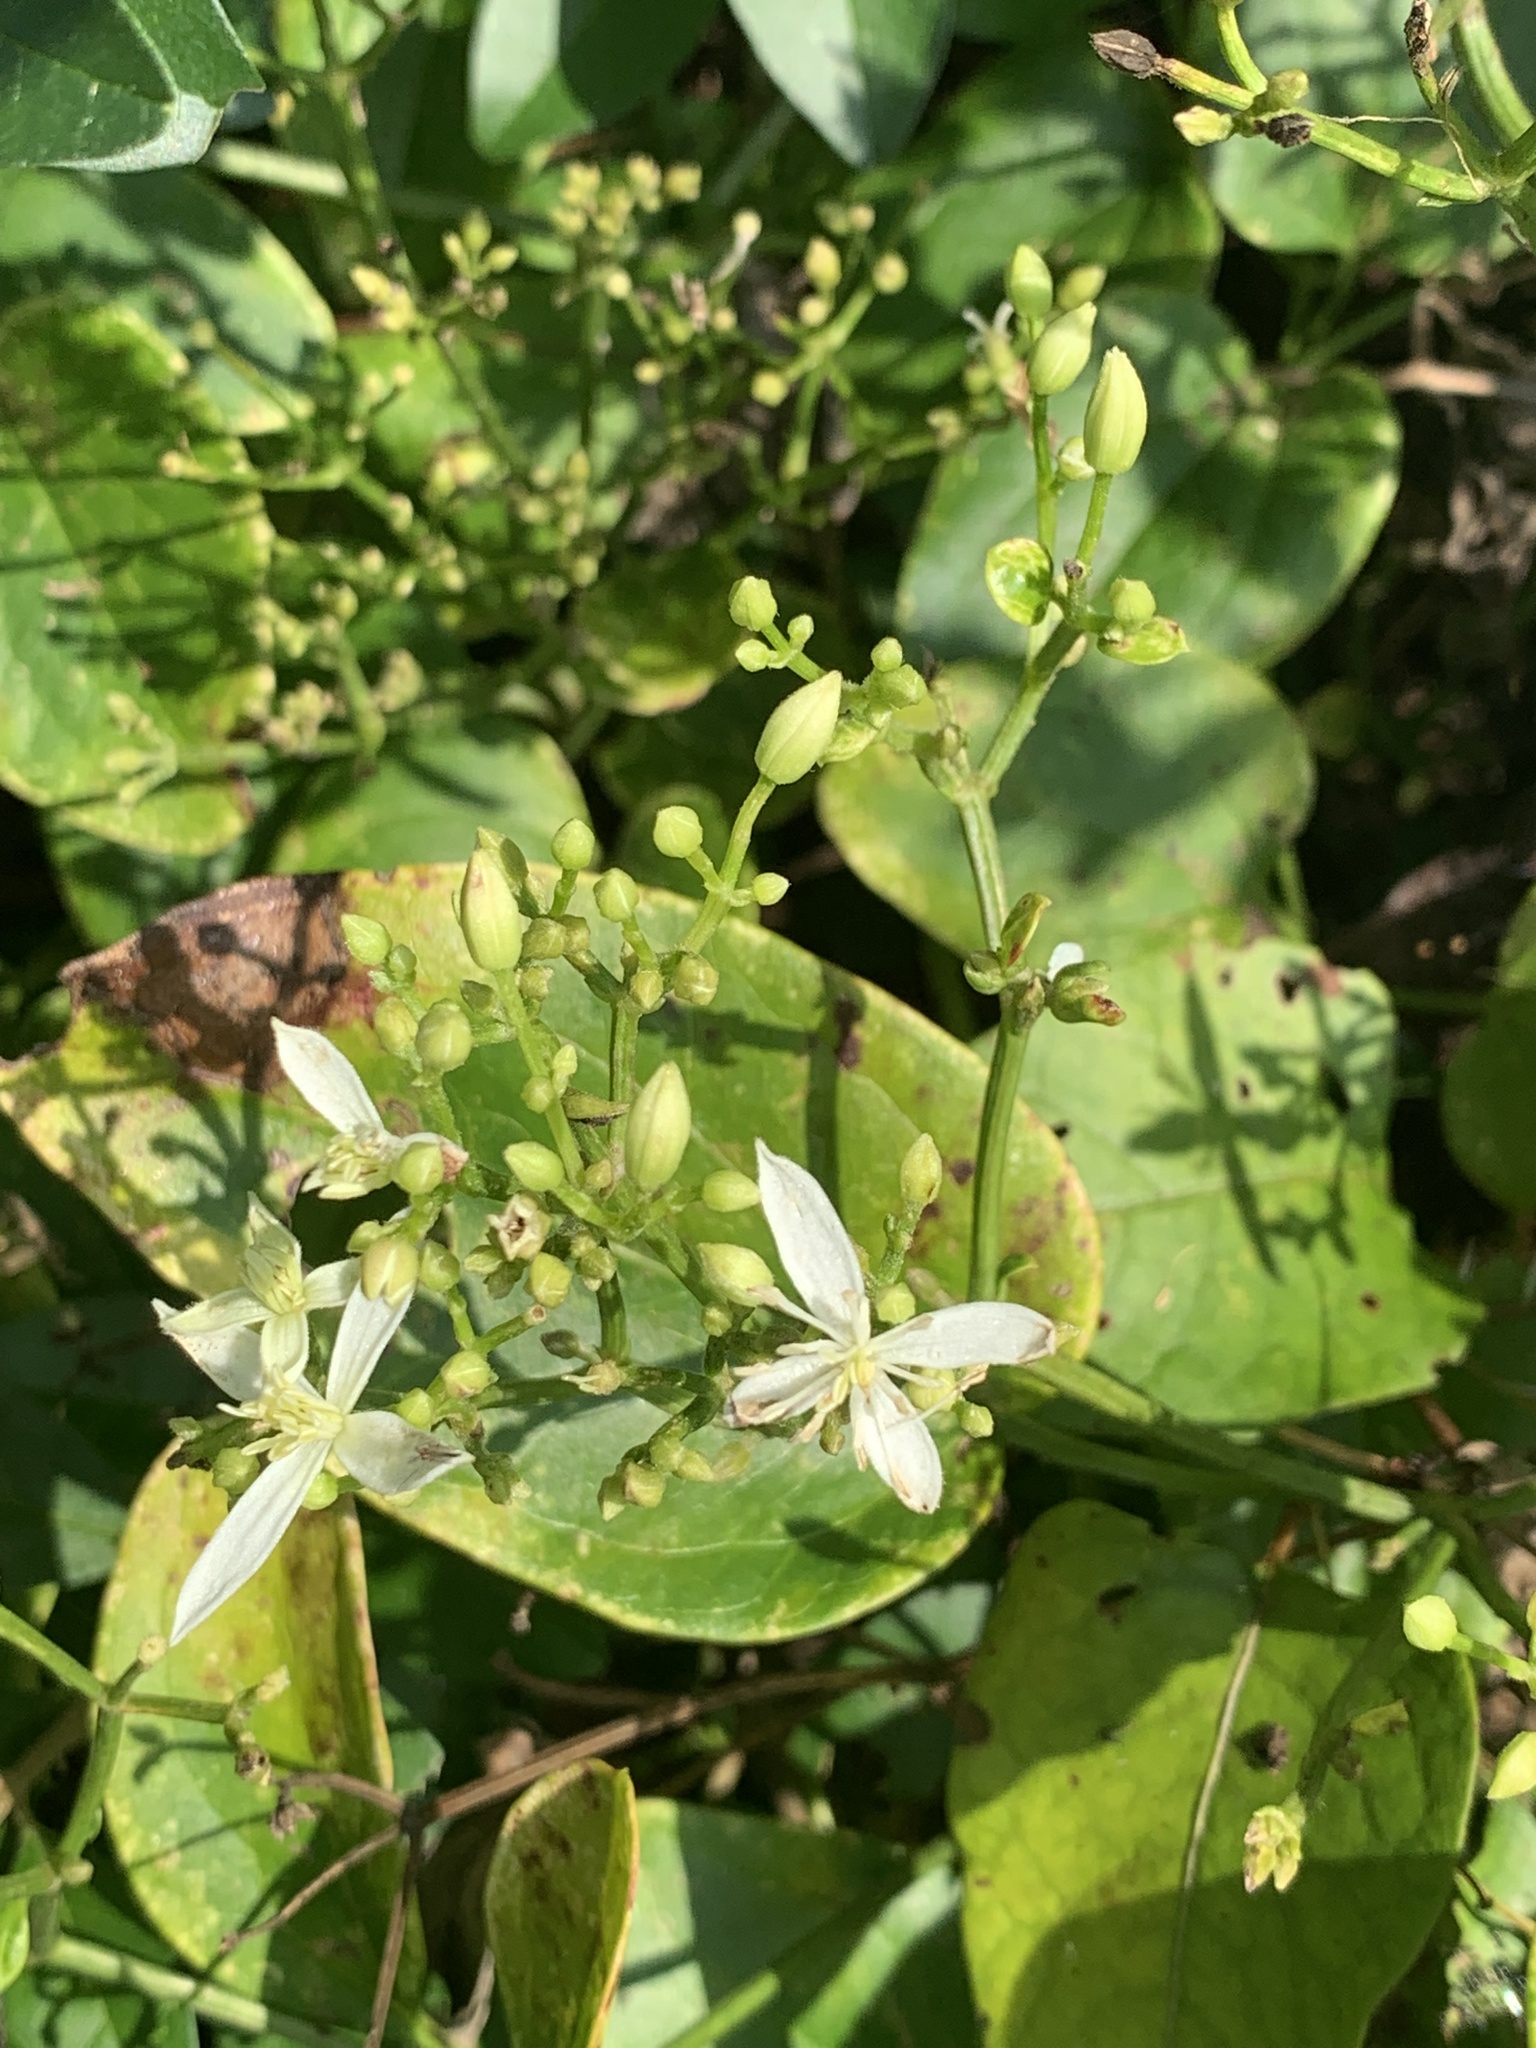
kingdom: Plantae
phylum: Tracheophyta
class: Magnoliopsida
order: Ranunculales
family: Ranunculaceae
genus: Clematis
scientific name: Clematis terniflora
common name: Sweet autumn clematis
